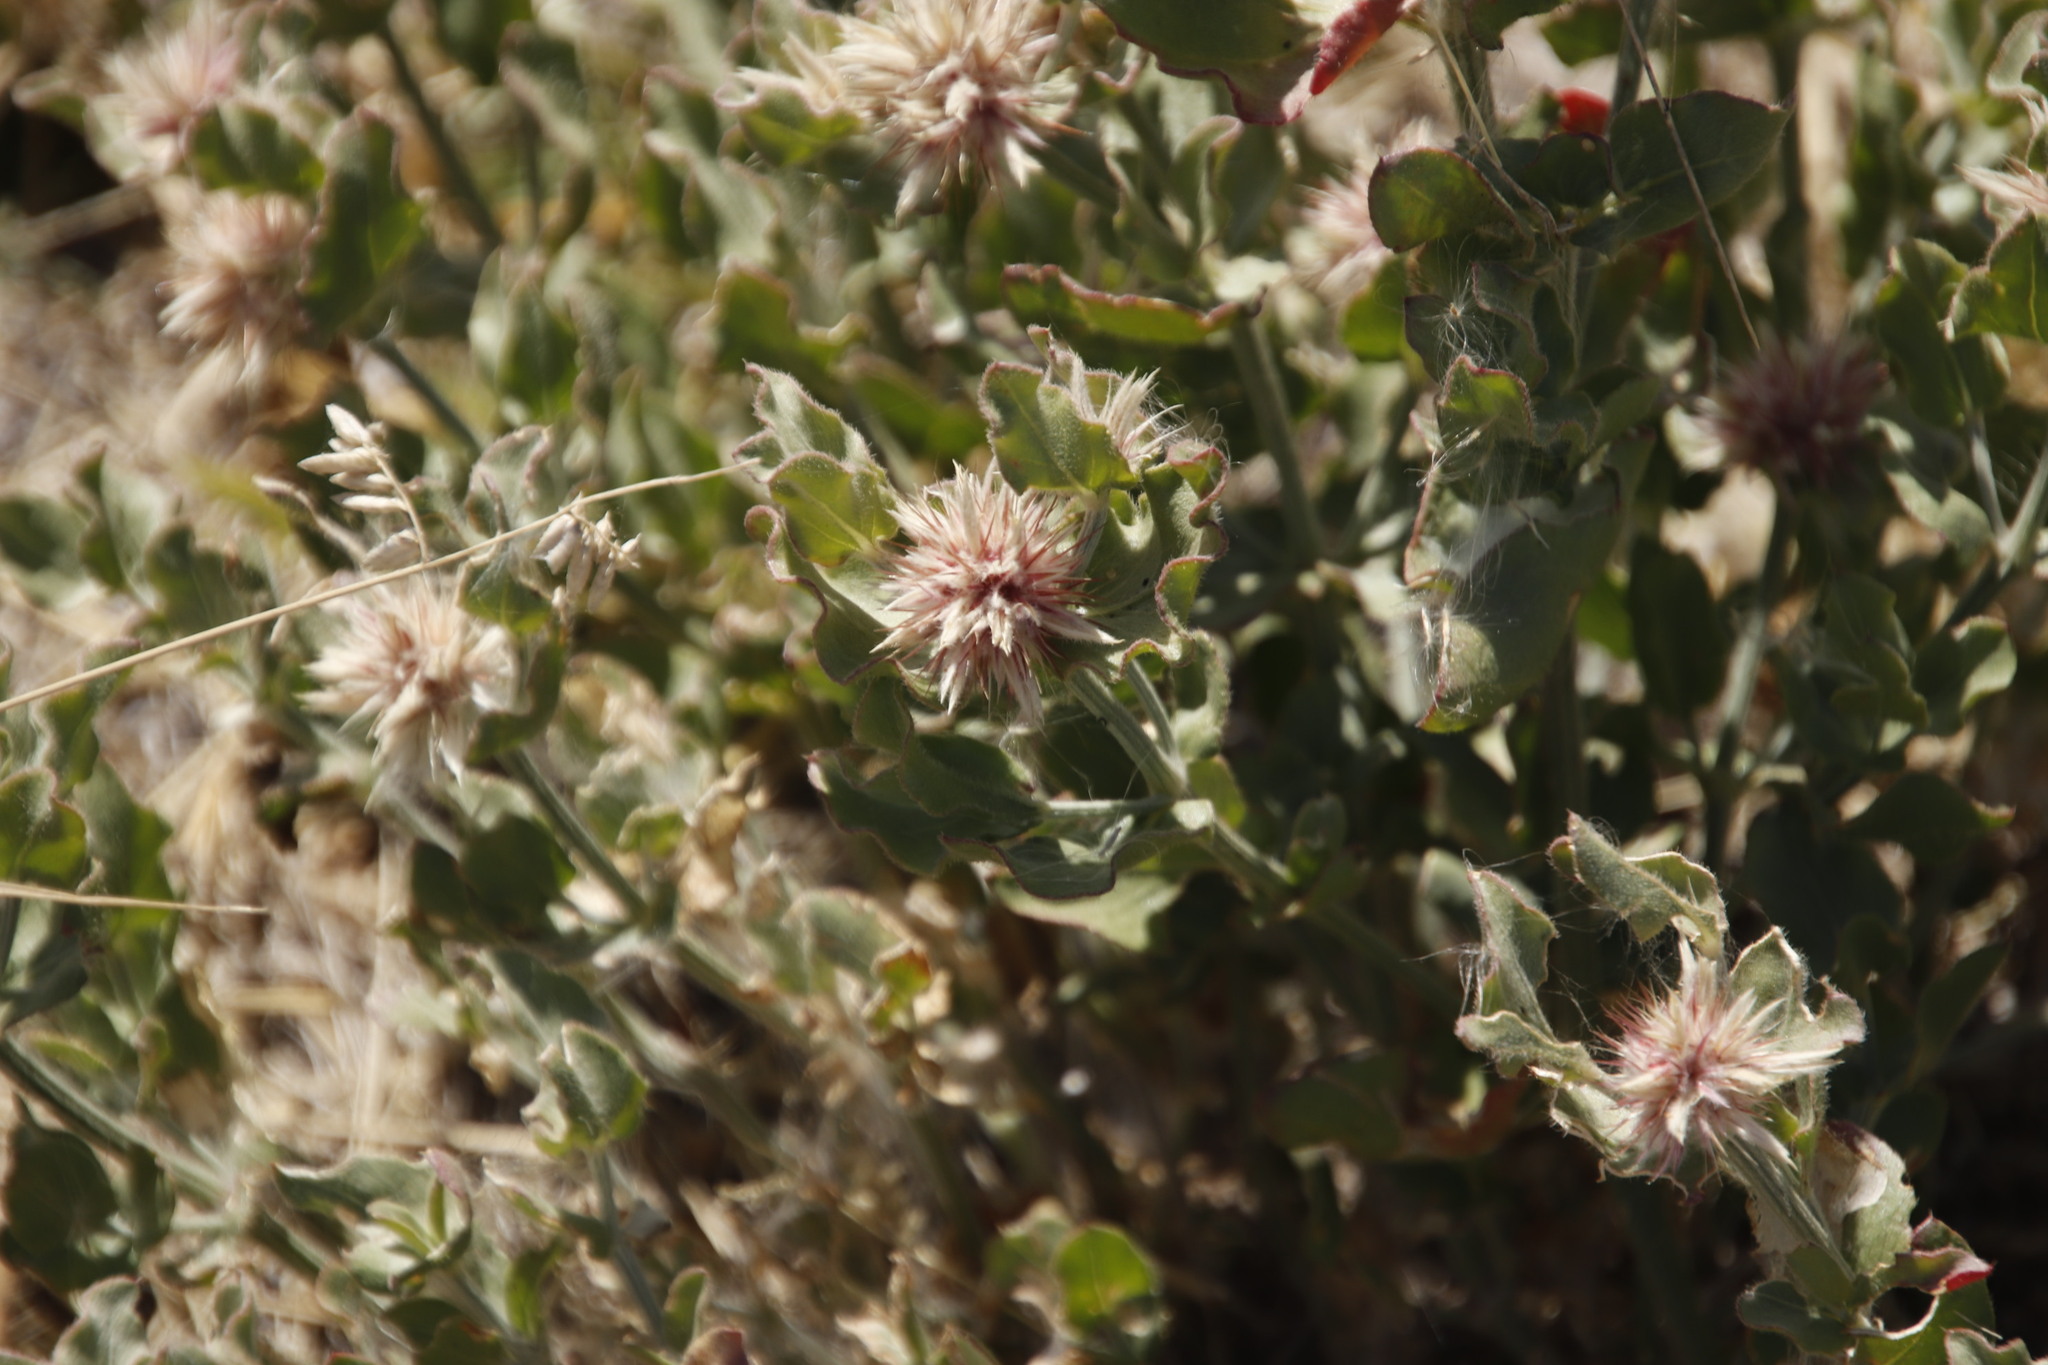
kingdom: Plantae
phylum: Tracheophyta
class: Magnoliopsida
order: Caryophyllales
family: Amaranthaceae
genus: Leucosphaera
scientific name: Leucosphaera bainesii
